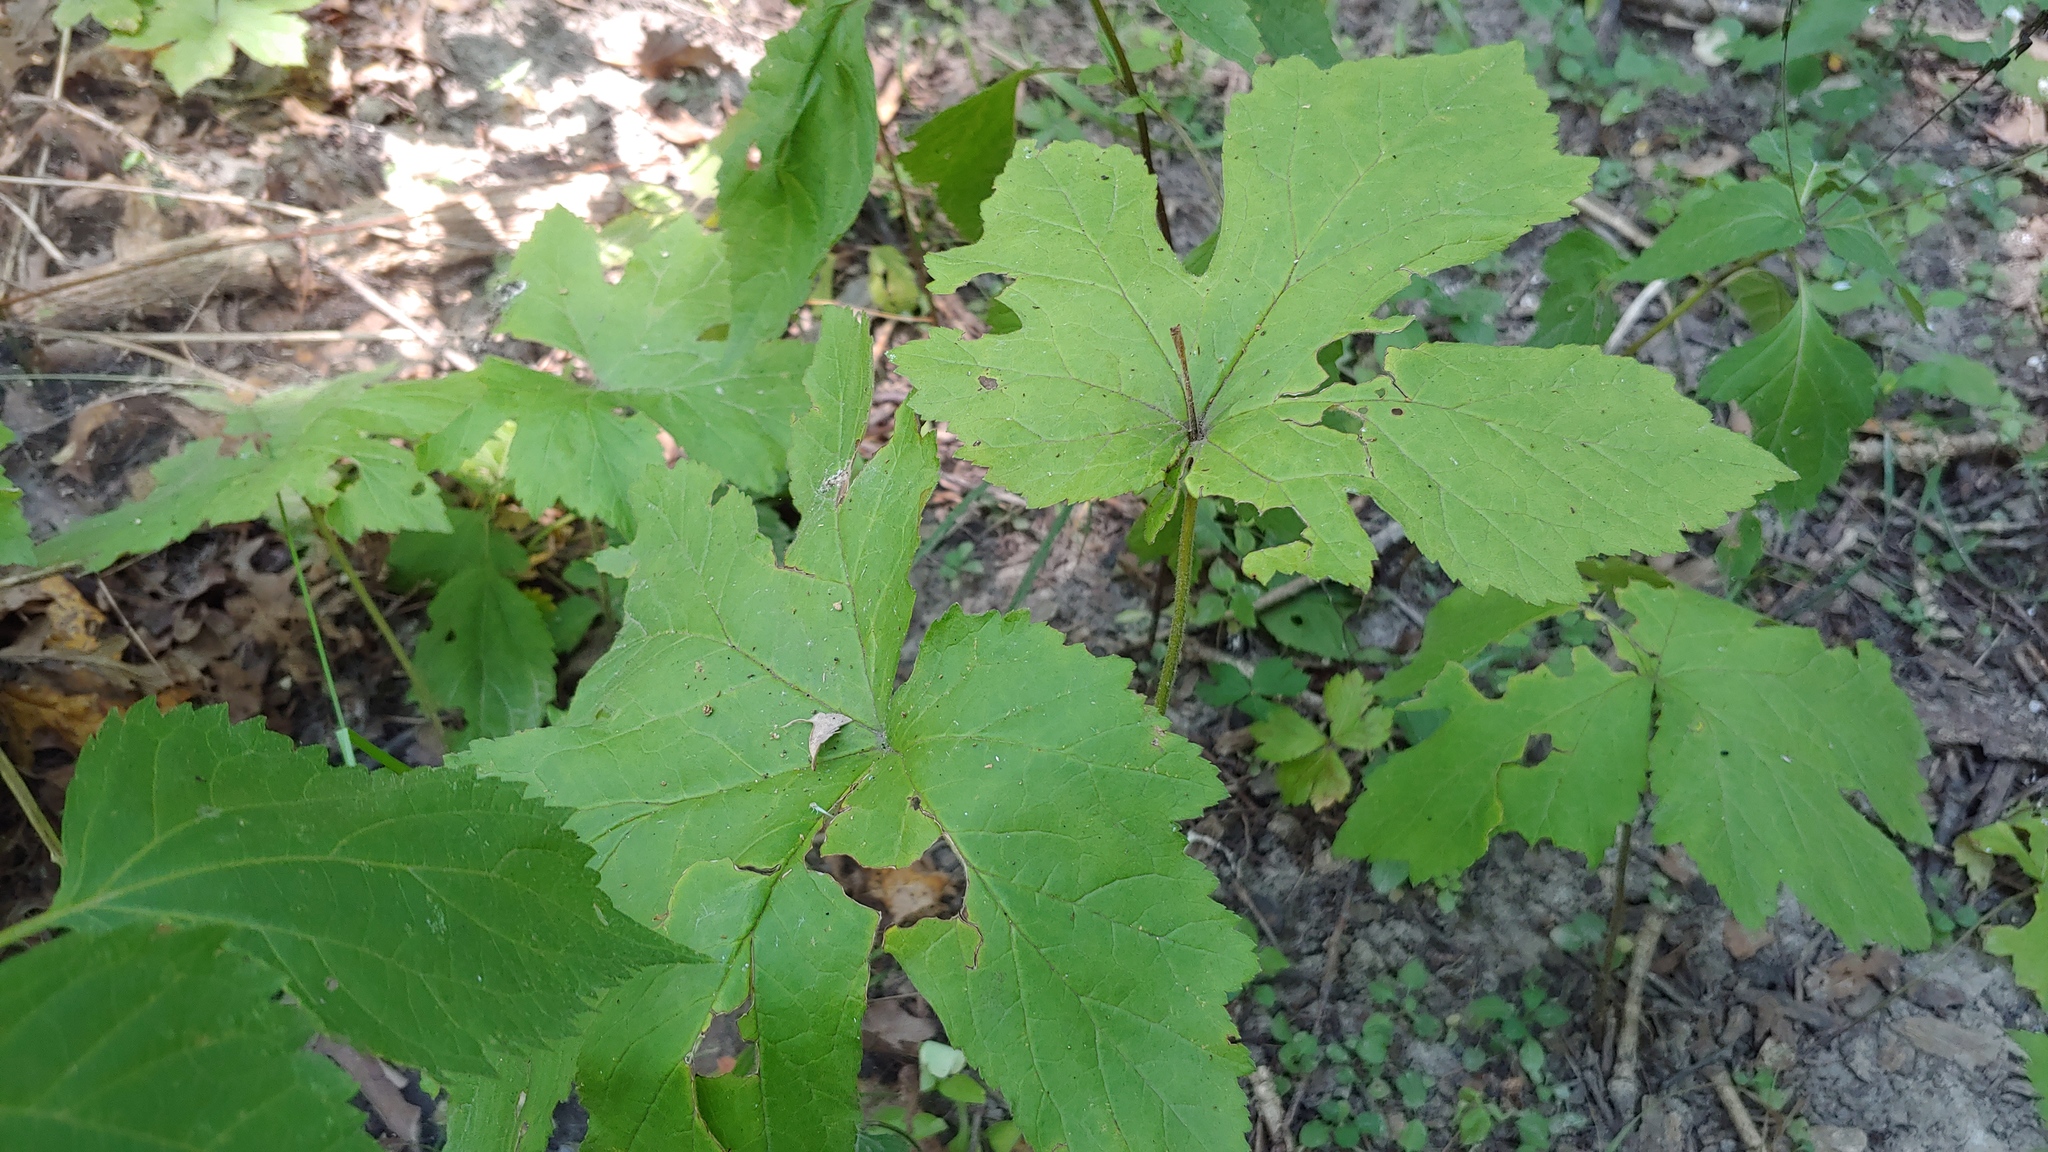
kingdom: Plantae
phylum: Tracheophyta
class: Magnoliopsida
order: Ranunculales
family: Ranunculaceae
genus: Hydrastis
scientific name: Hydrastis canadensis
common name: Goldenseal
